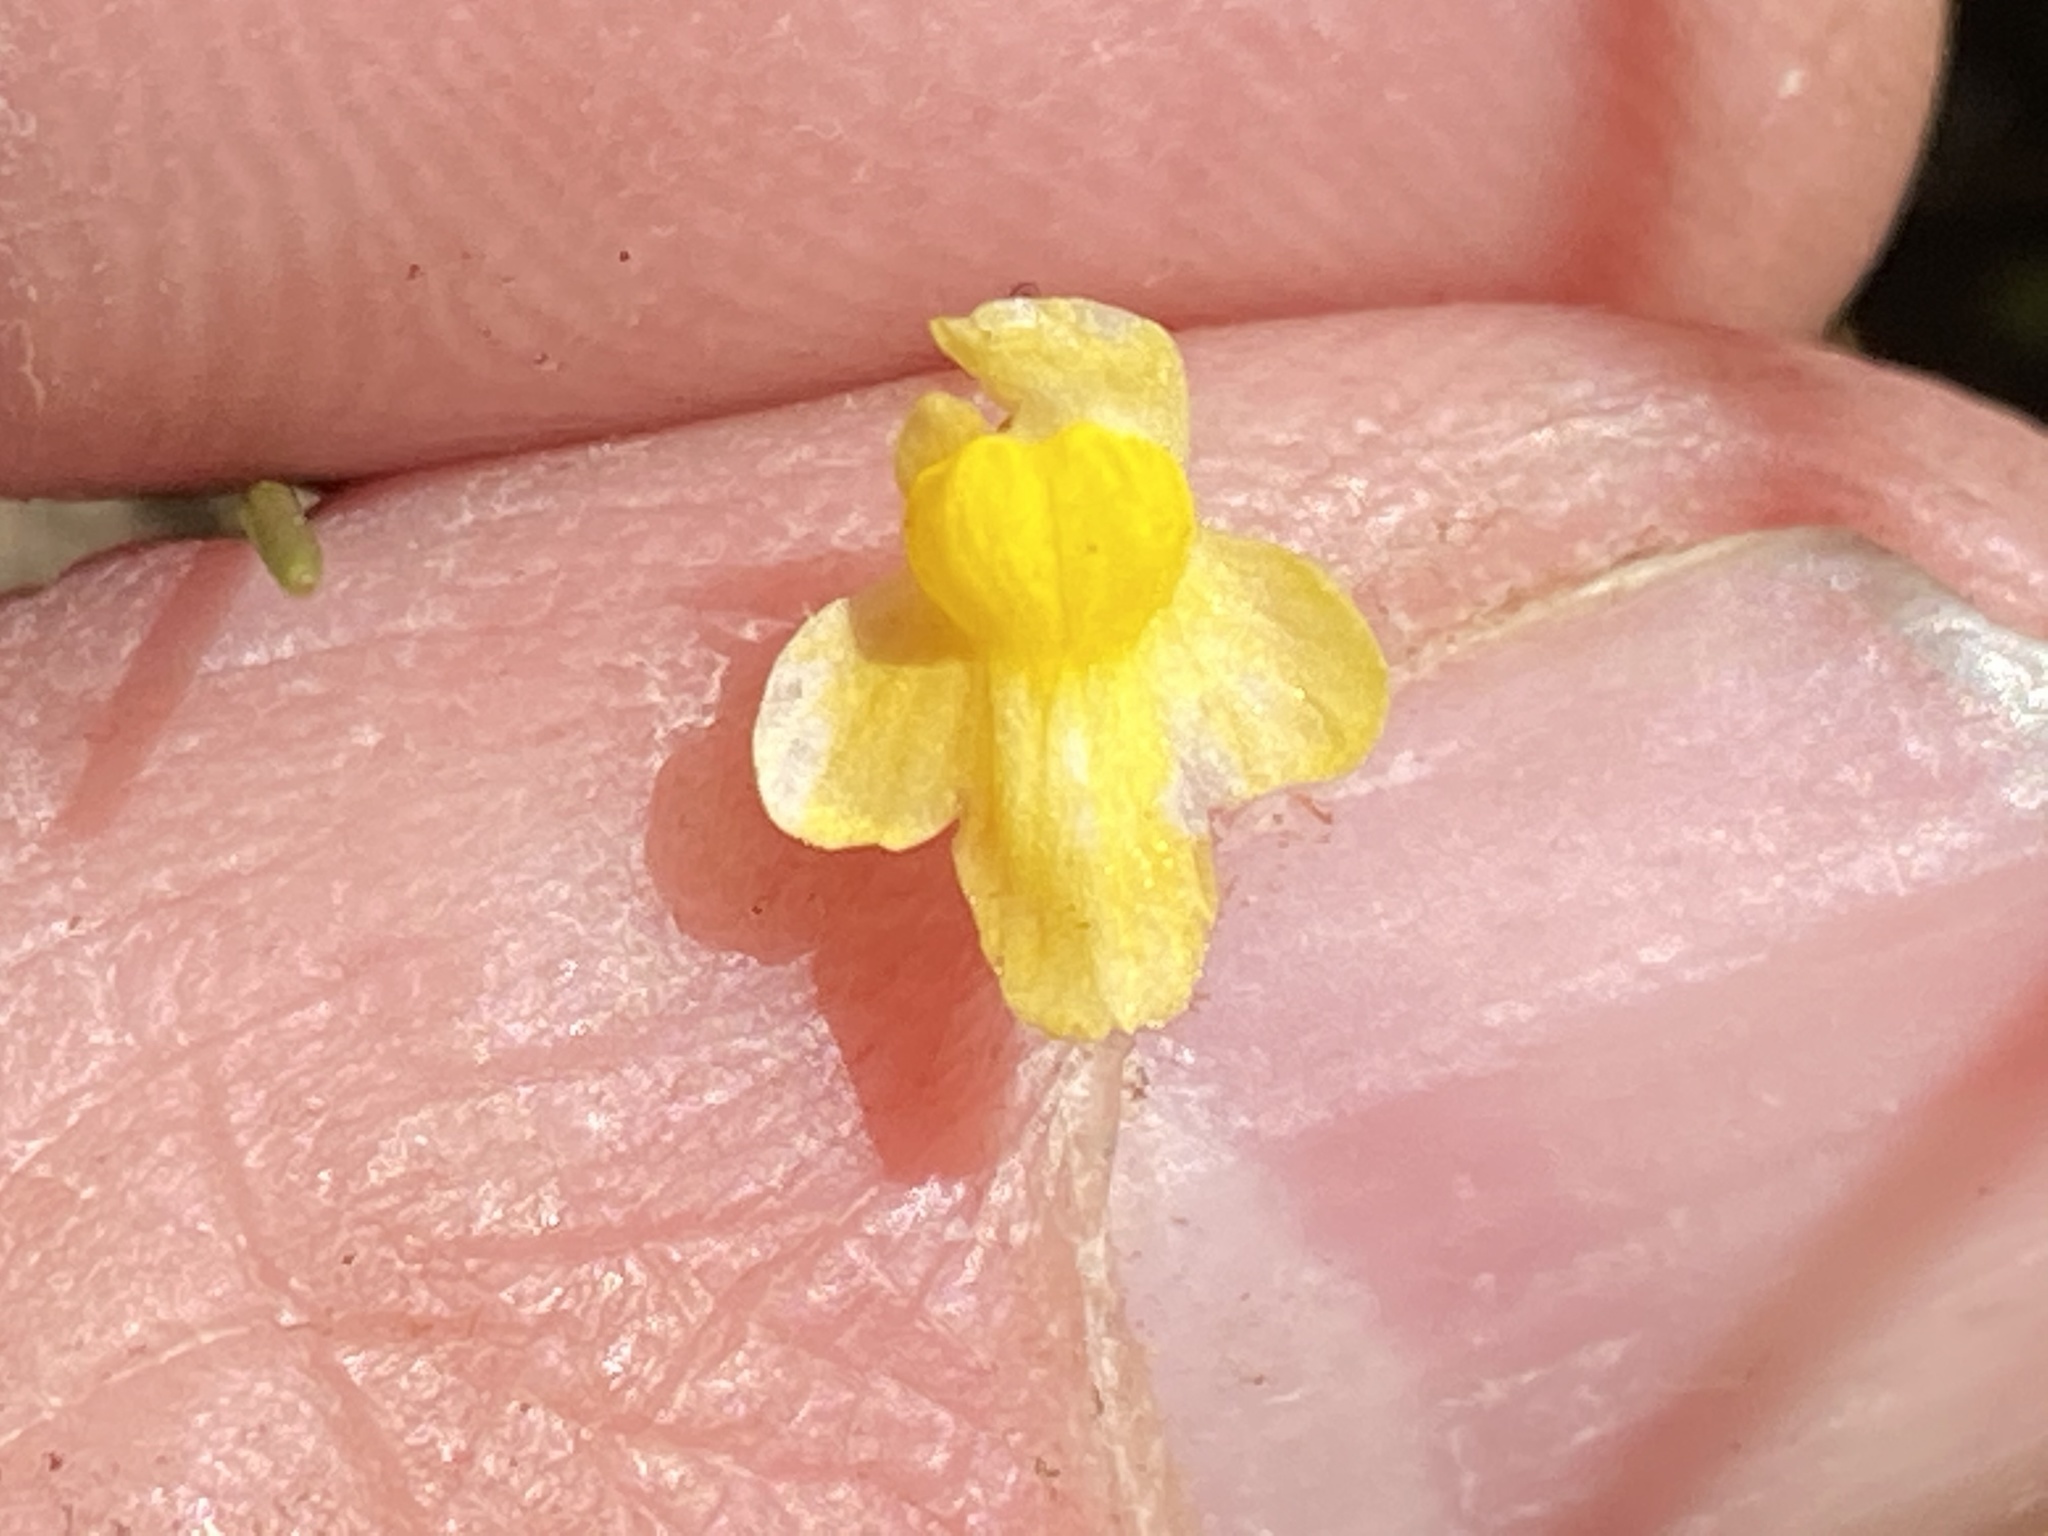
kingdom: Plantae
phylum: Tracheophyta
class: Magnoliopsida
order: Lamiales
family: Lentibulariaceae
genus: Utricularia
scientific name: Utricularia subulata
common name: Tiny bladderwort
